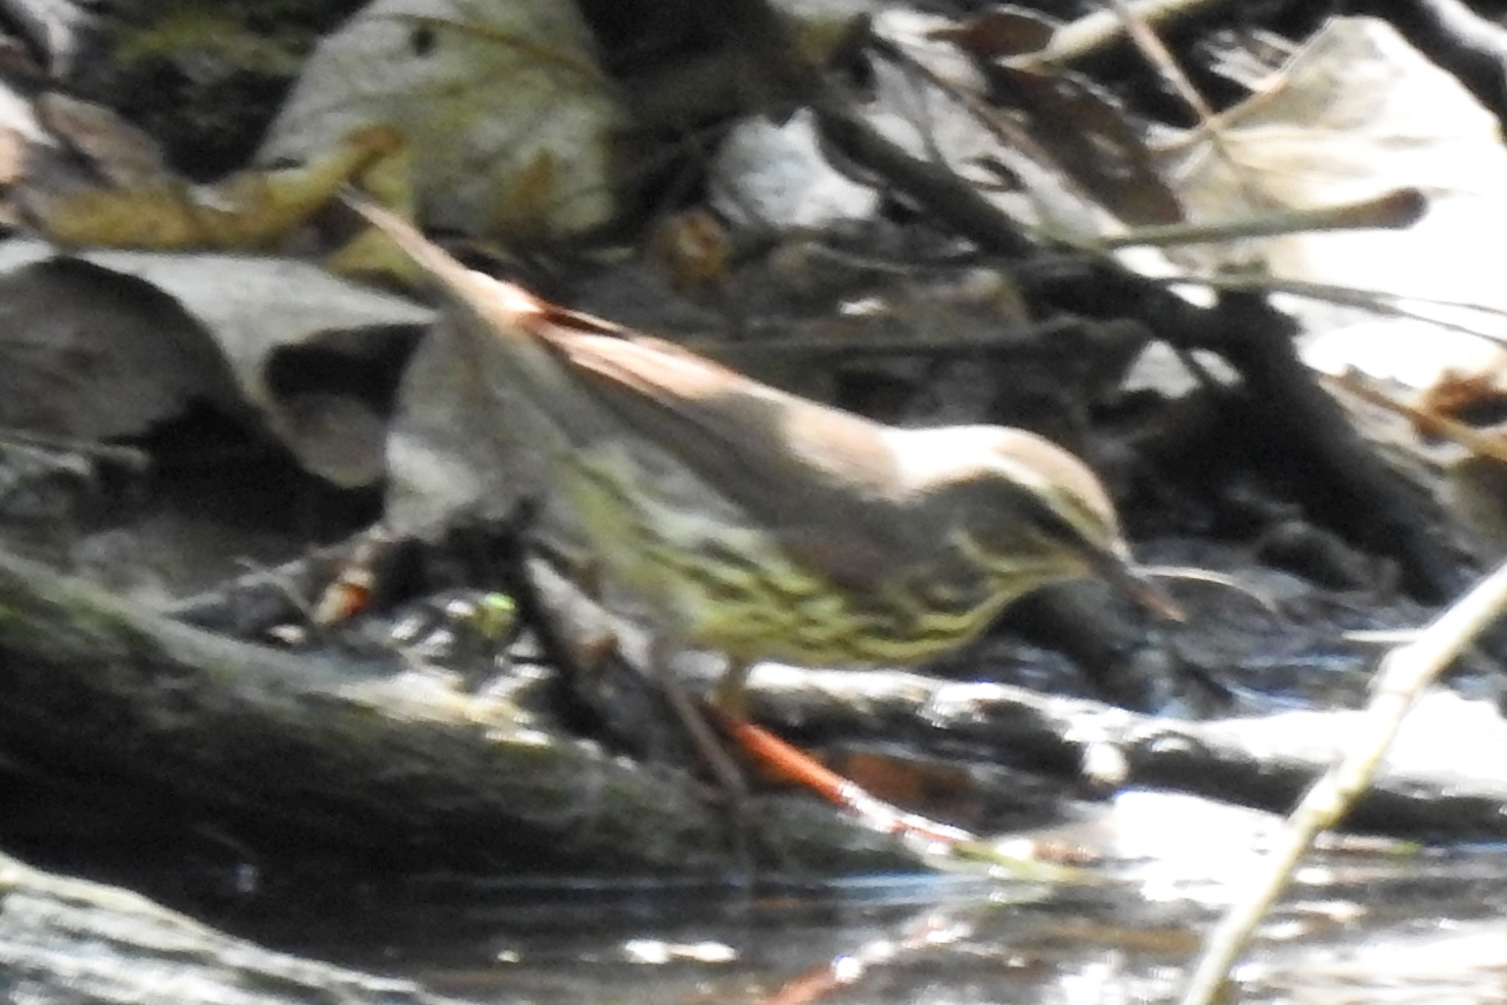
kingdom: Animalia
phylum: Chordata
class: Aves
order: Passeriformes
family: Parulidae
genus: Parkesia
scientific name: Parkesia noveboracensis
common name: Northern waterthrush
